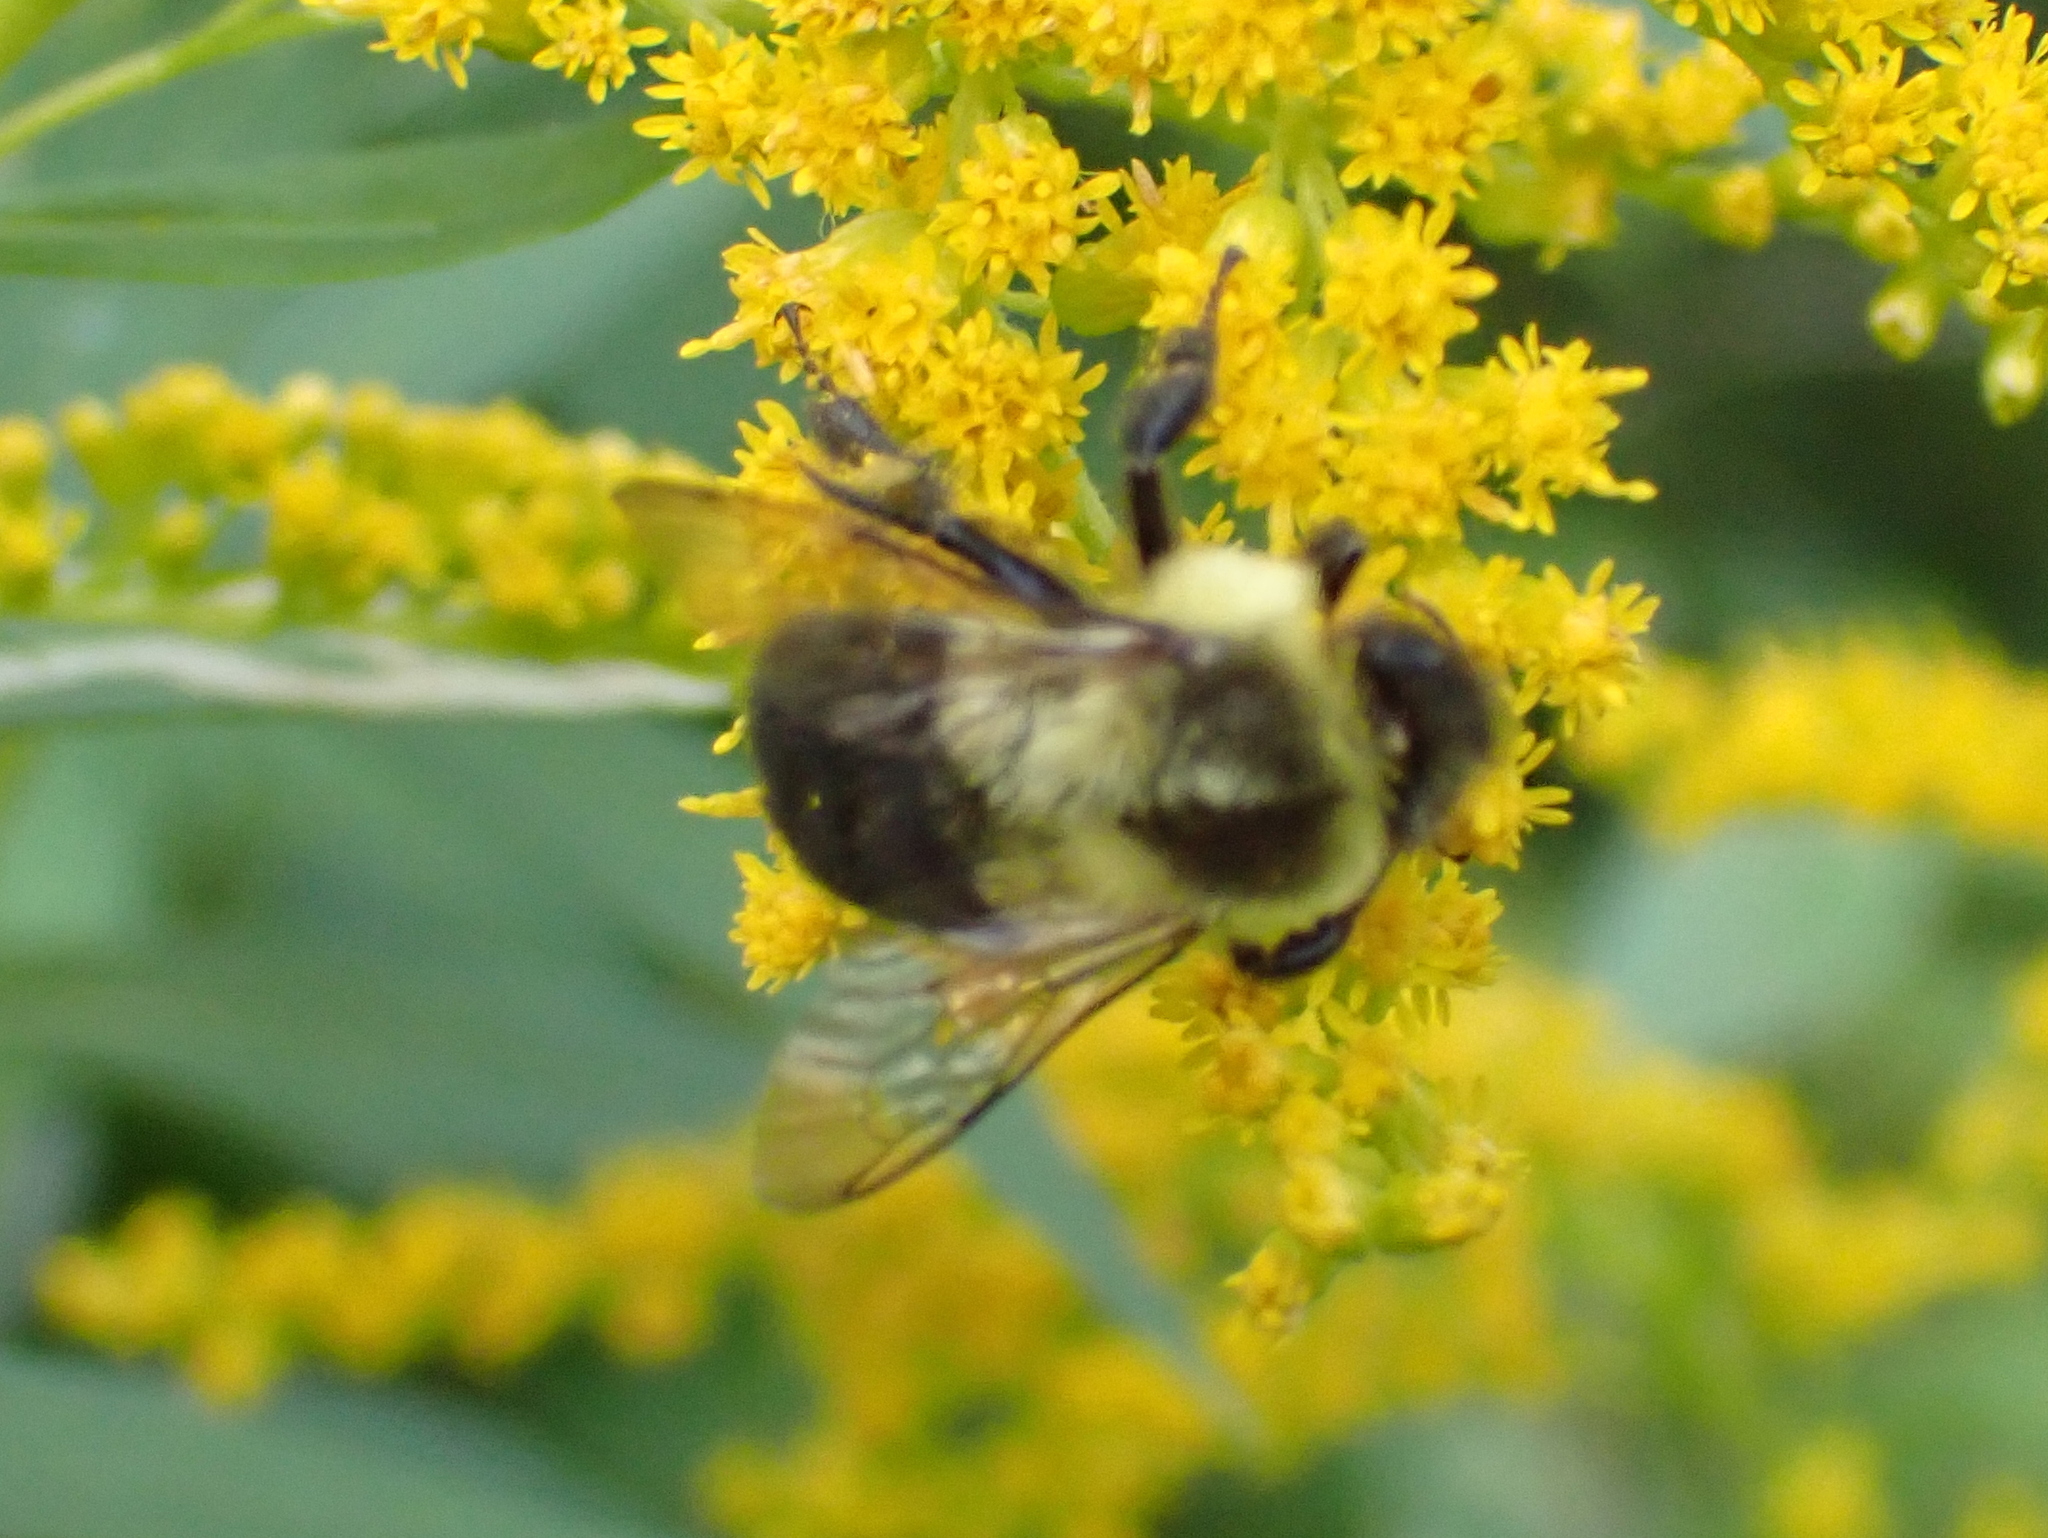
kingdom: Animalia
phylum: Arthropoda
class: Insecta
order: Hymenoptera
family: Apidae
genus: Bombus
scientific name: Bombus impatiens
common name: Common eastern bumble bee
